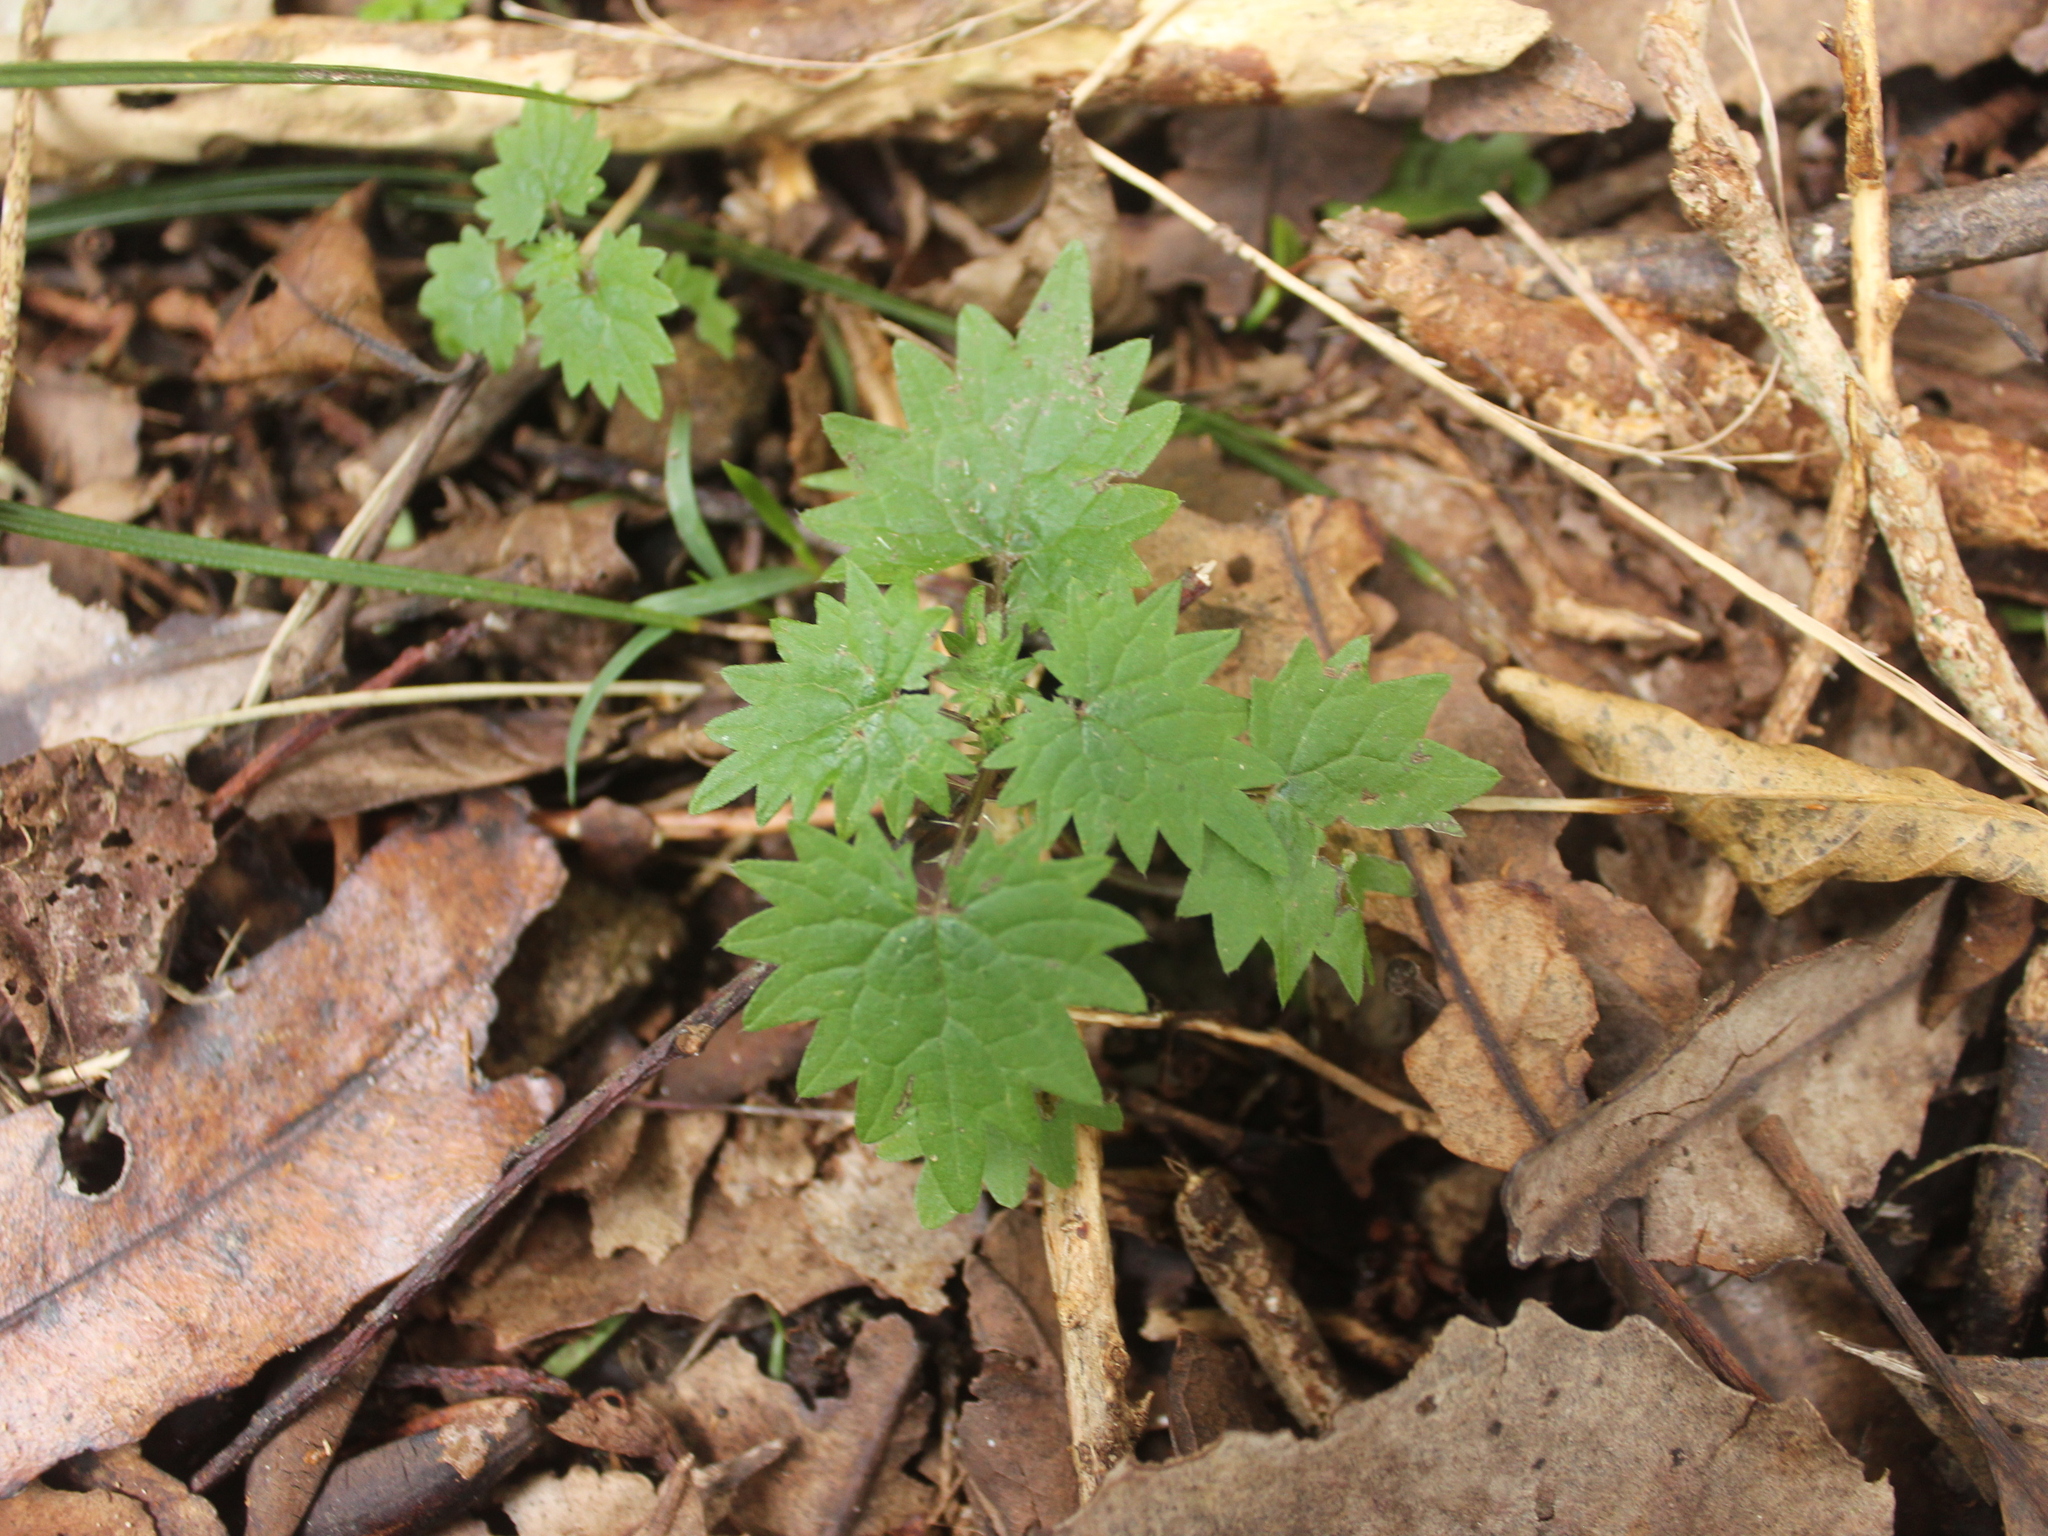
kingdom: Plantae
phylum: Tracheophyta
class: Magnoliopsida
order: Rosales
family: Urticaceae
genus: Urtica
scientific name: Urtica sykesii
